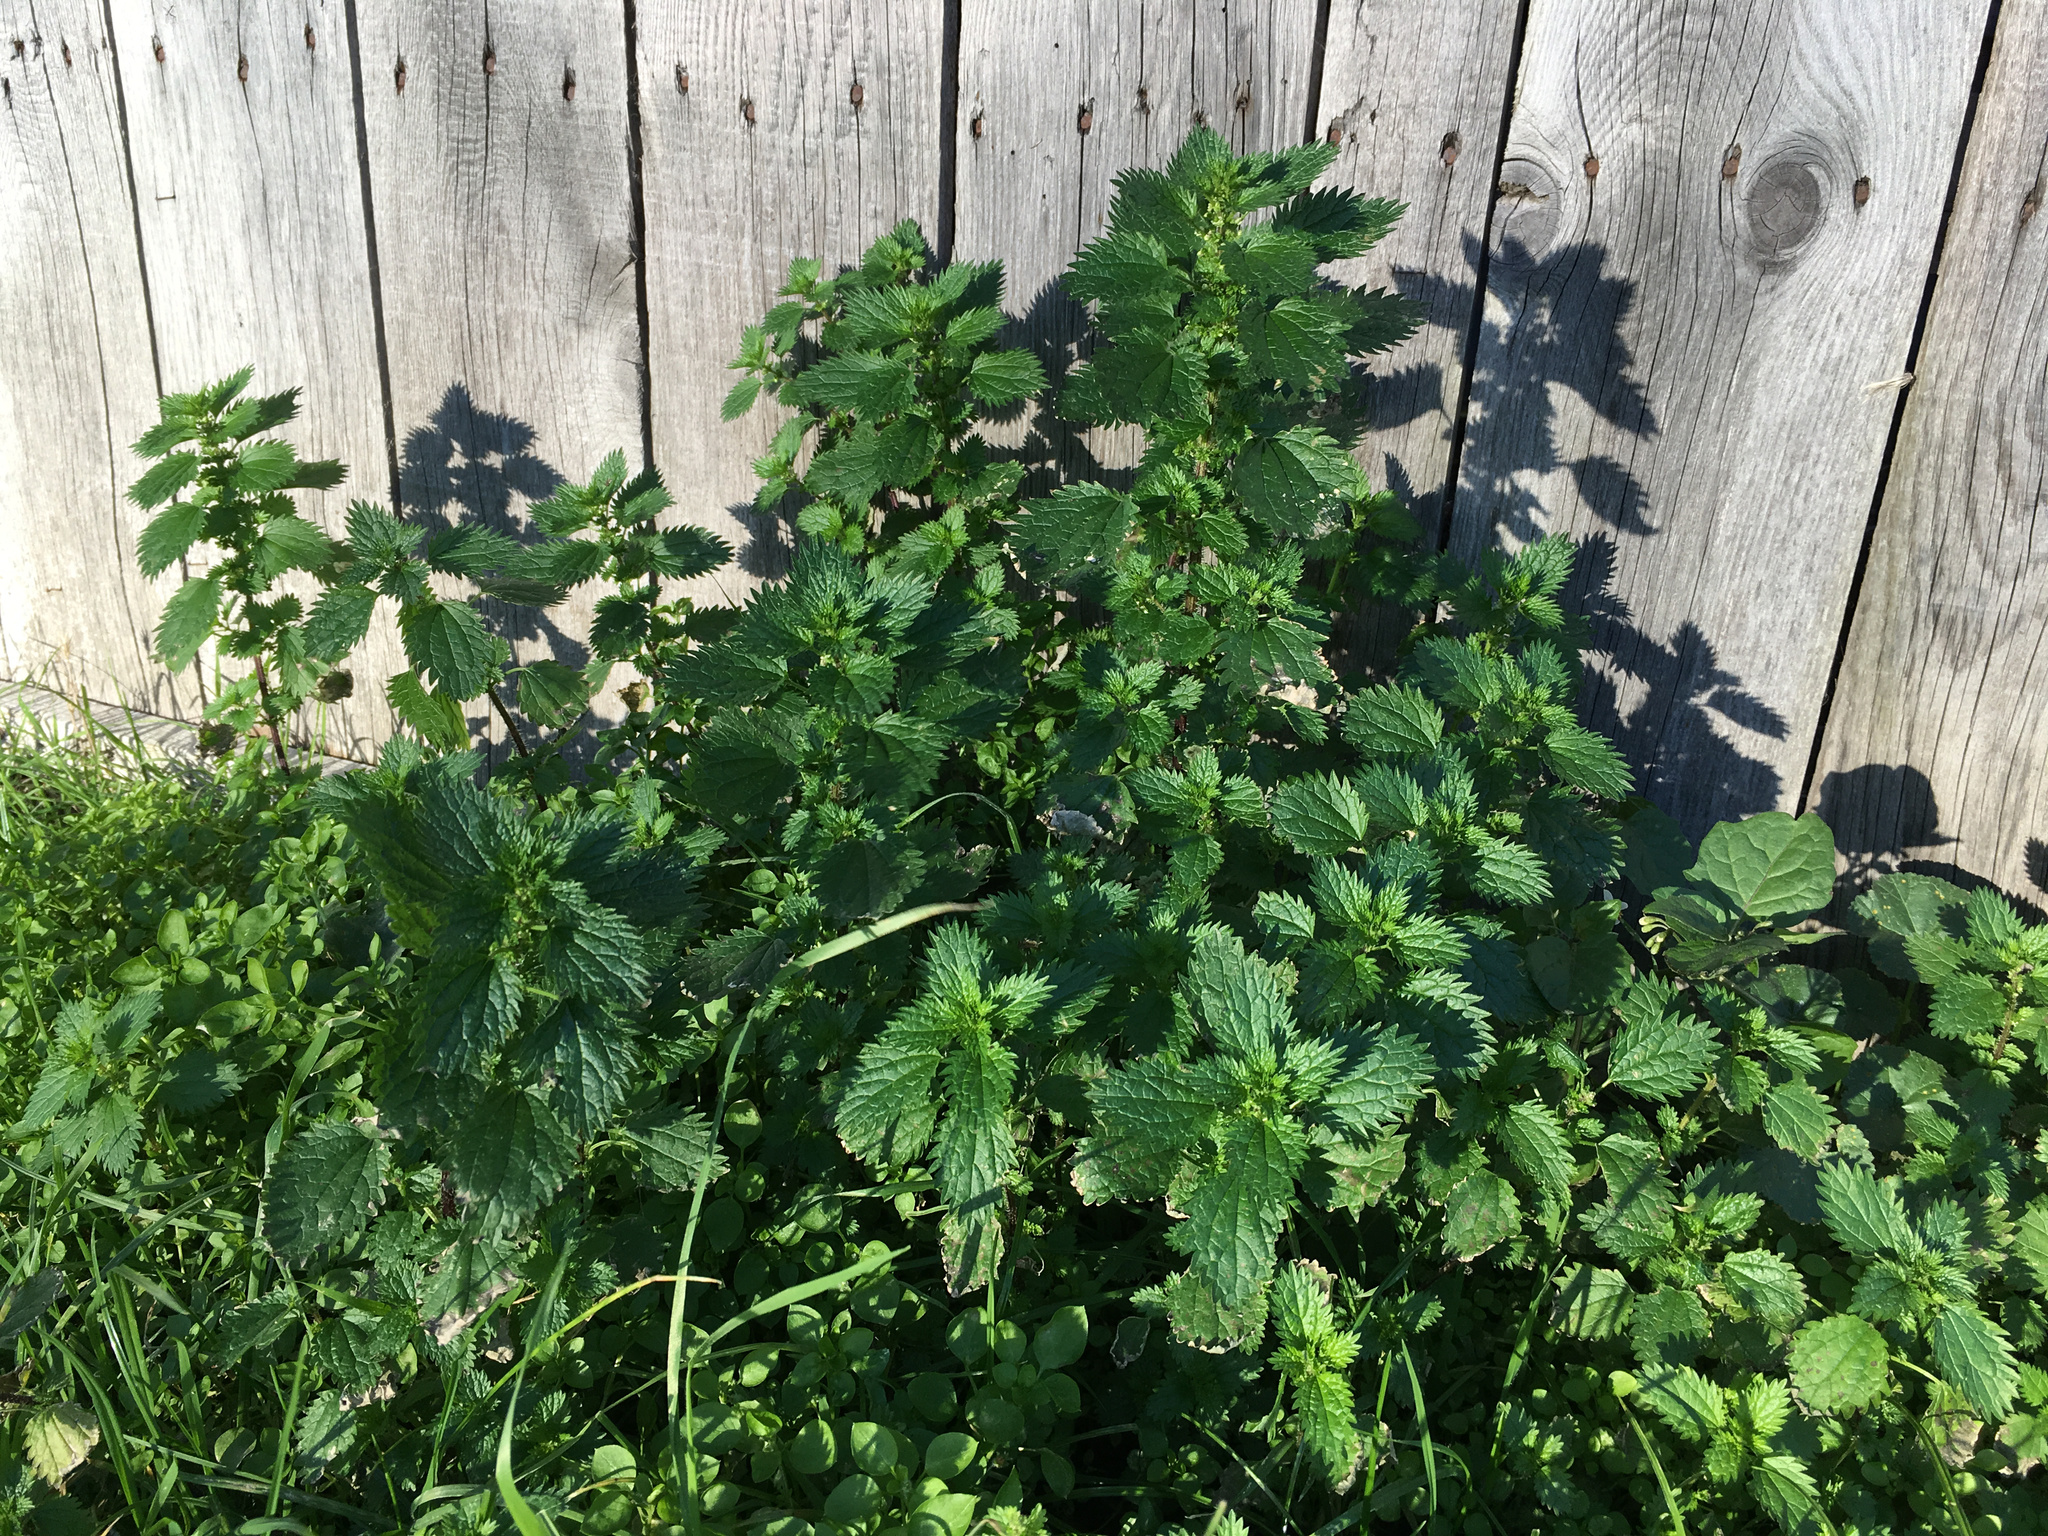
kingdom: Plantae
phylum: Tracheophyta
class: Magnoliopsida
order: Rosales
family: Urticaceae
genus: Urtica
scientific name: Urtica urens
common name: Dwarf nettle
